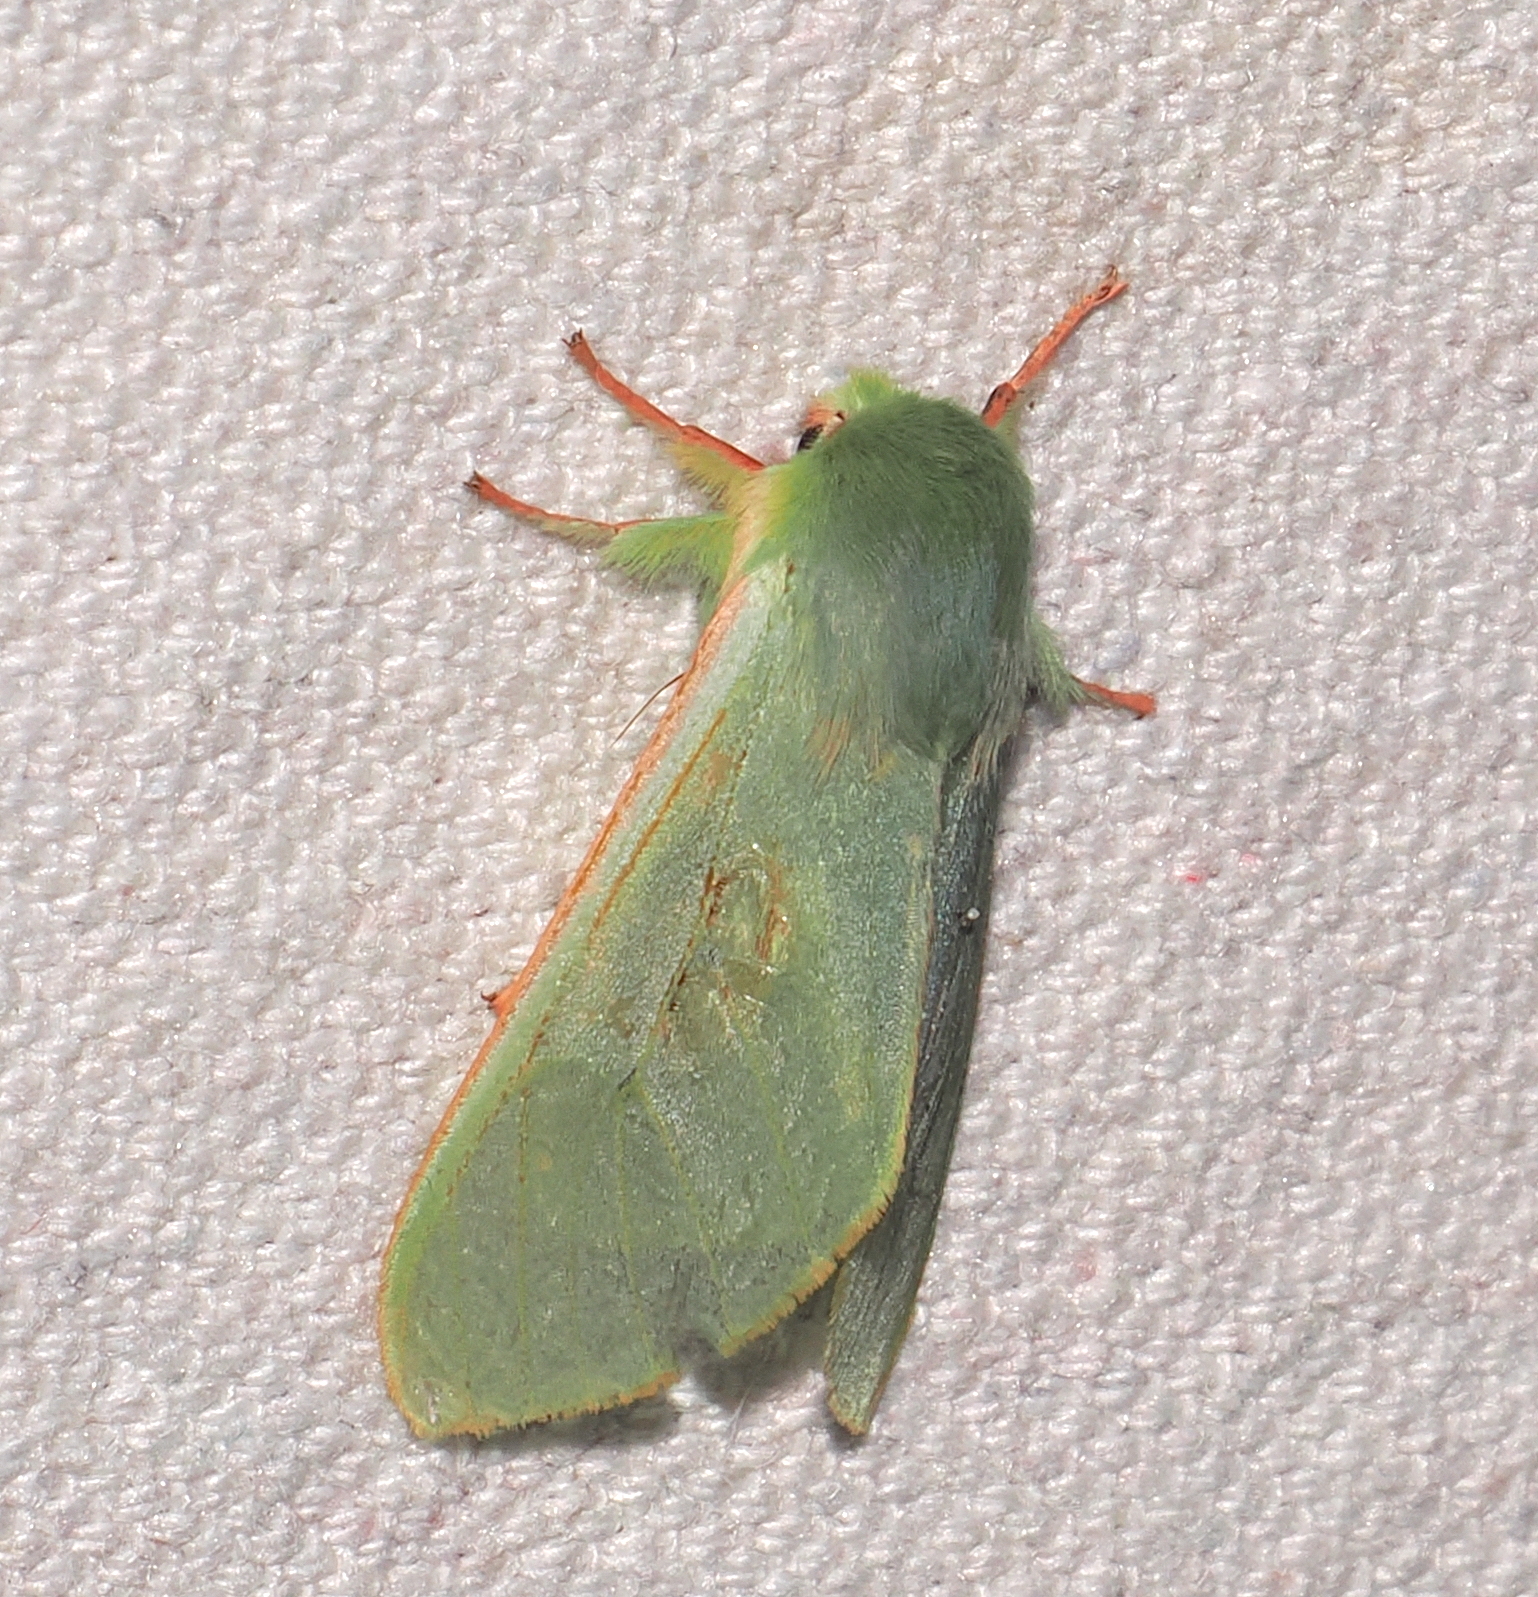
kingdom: Animalia
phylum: Arthropoda
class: Insecta
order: Lepidoptera
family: Erebidae
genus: Hypomolis
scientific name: Hypomolis aeruginosa
